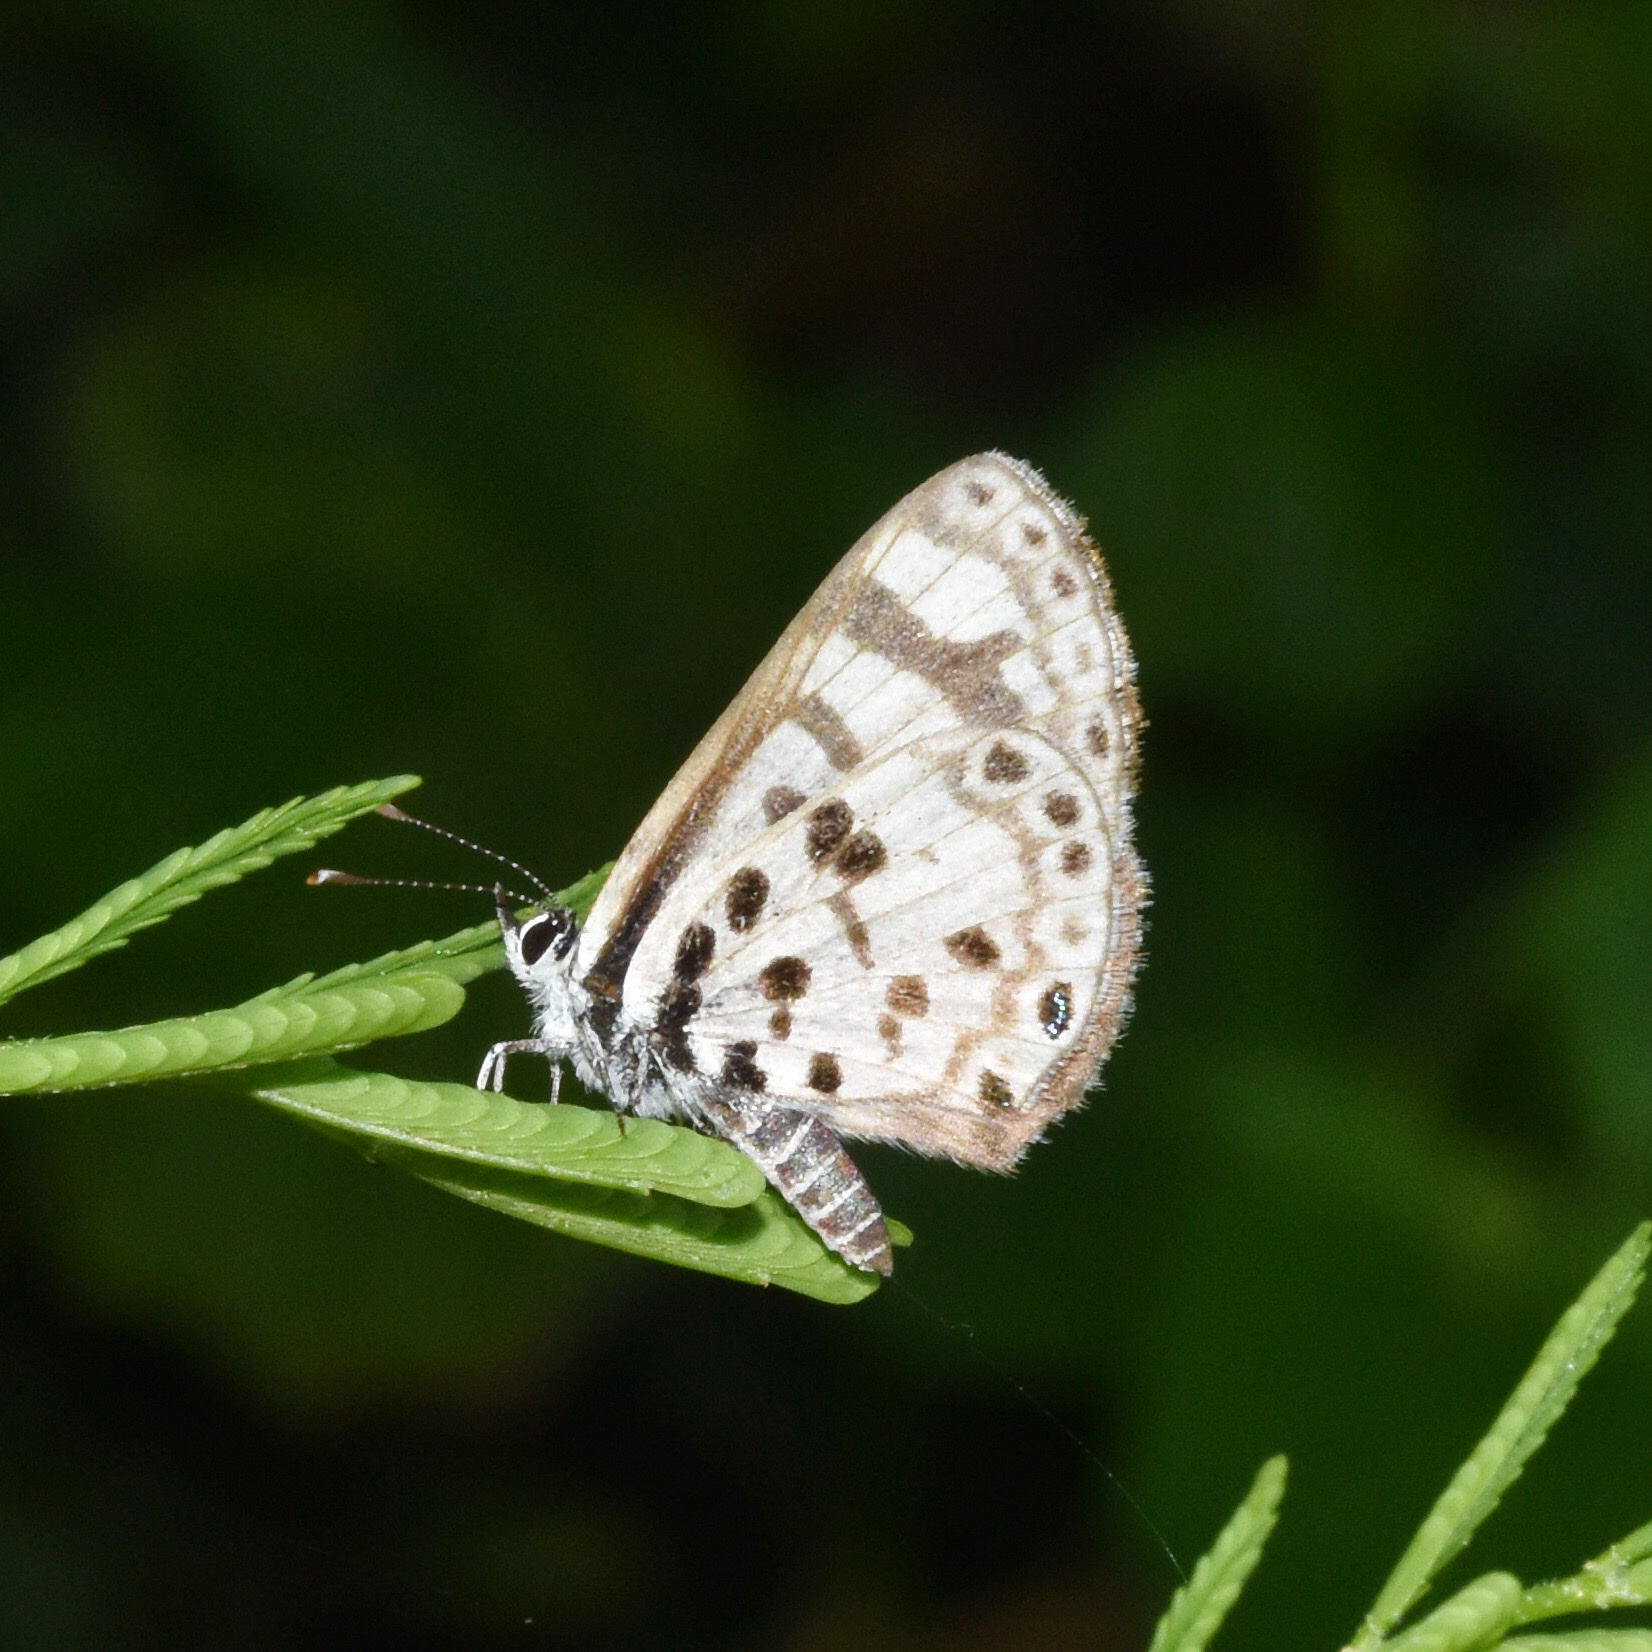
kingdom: Animalia
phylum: Arthropoda
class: Insecta
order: Lepidoptera
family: Lycaenidae
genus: Azanus
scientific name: Azanus natalensis
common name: Natal babul blue
